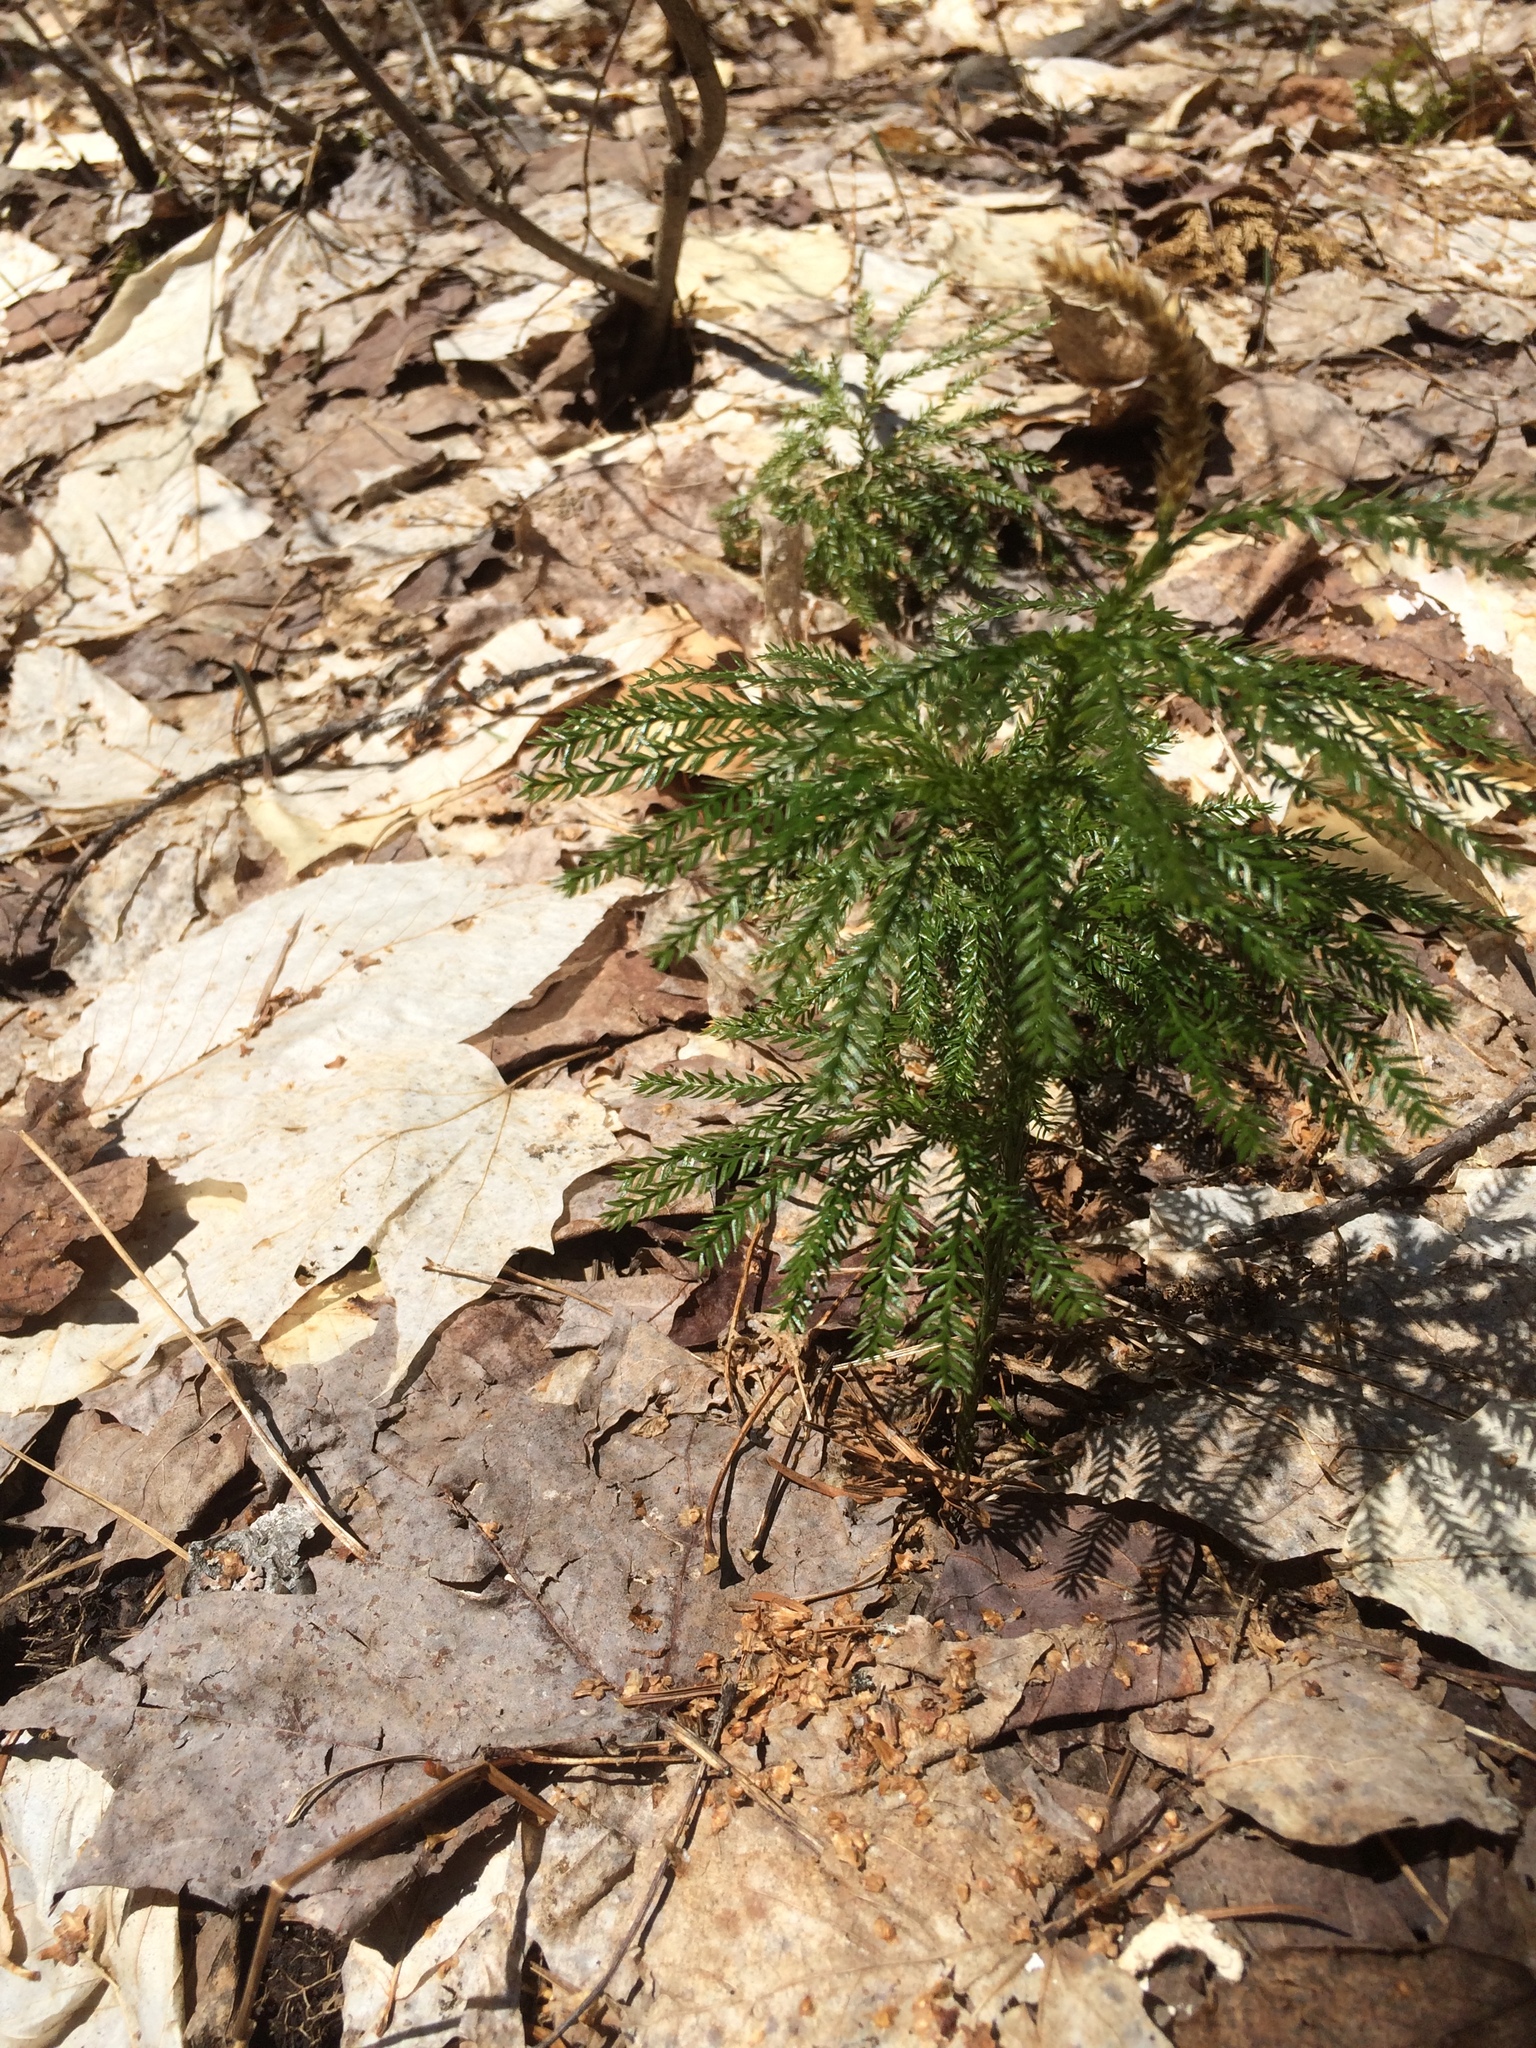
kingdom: Plantae
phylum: Tracheophyta
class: Lycopodiopsida
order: Lycopodiales
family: Lycopodiaceae
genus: Dendrolycopodium
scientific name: Dendrolycopodium obscurum
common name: Common ground-pine
